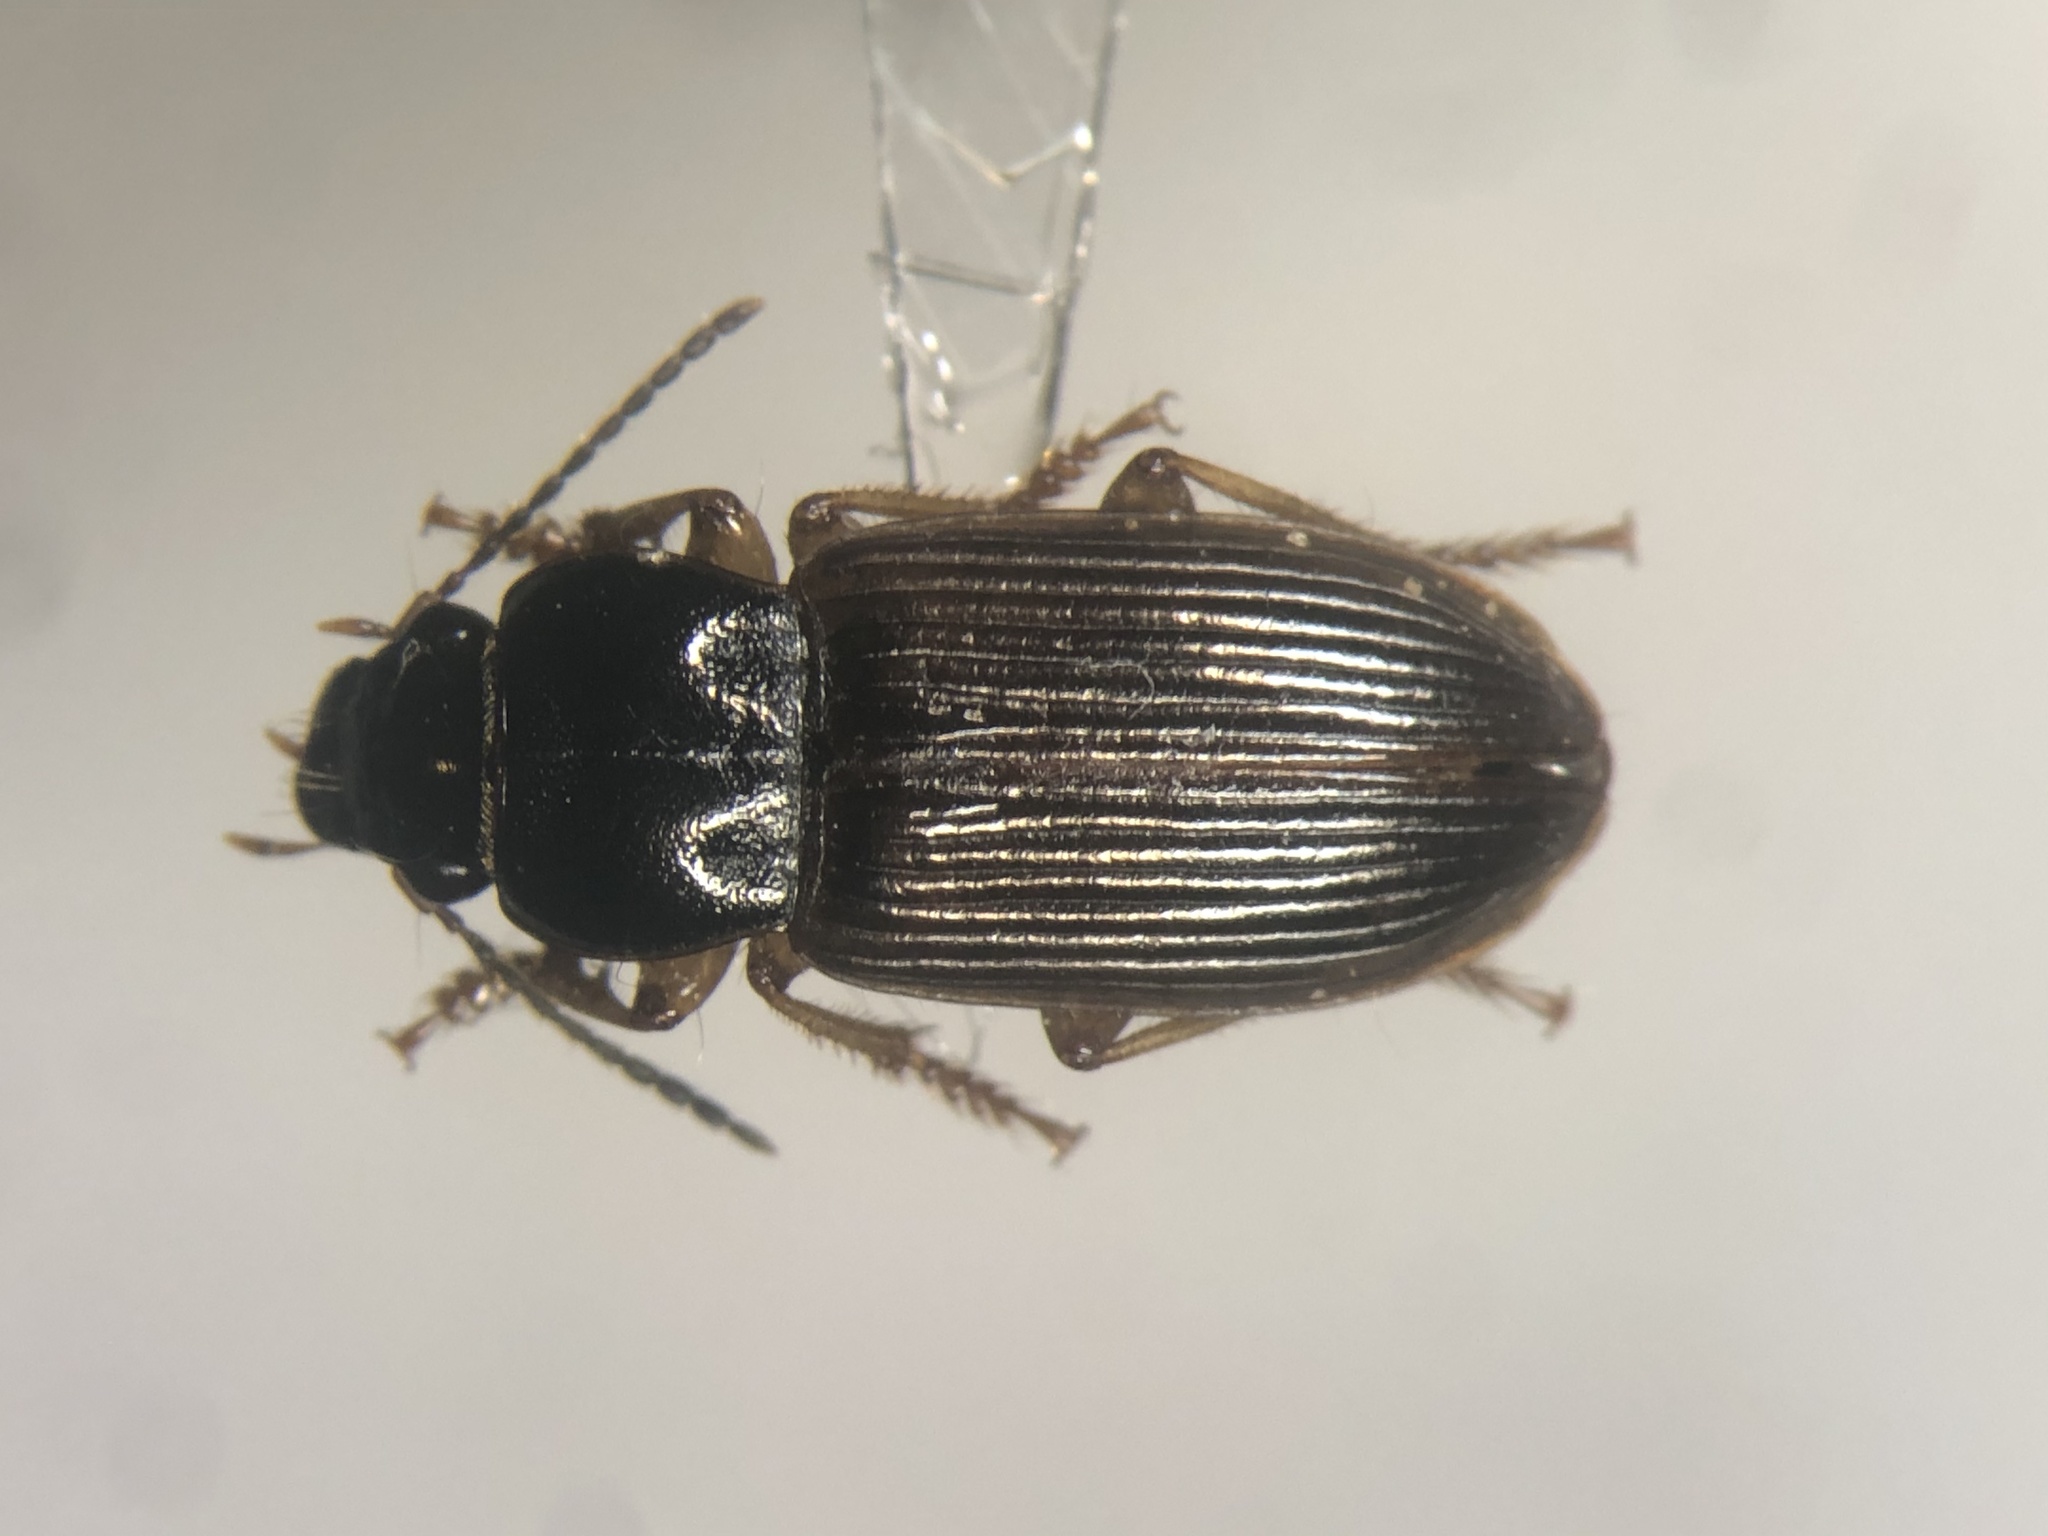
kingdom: Animalia
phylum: Arthropoda
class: Insecta
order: Coleoptera
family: Carabidae
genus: Anisodactylus
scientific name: Anisodactylus sanctaecrucis
